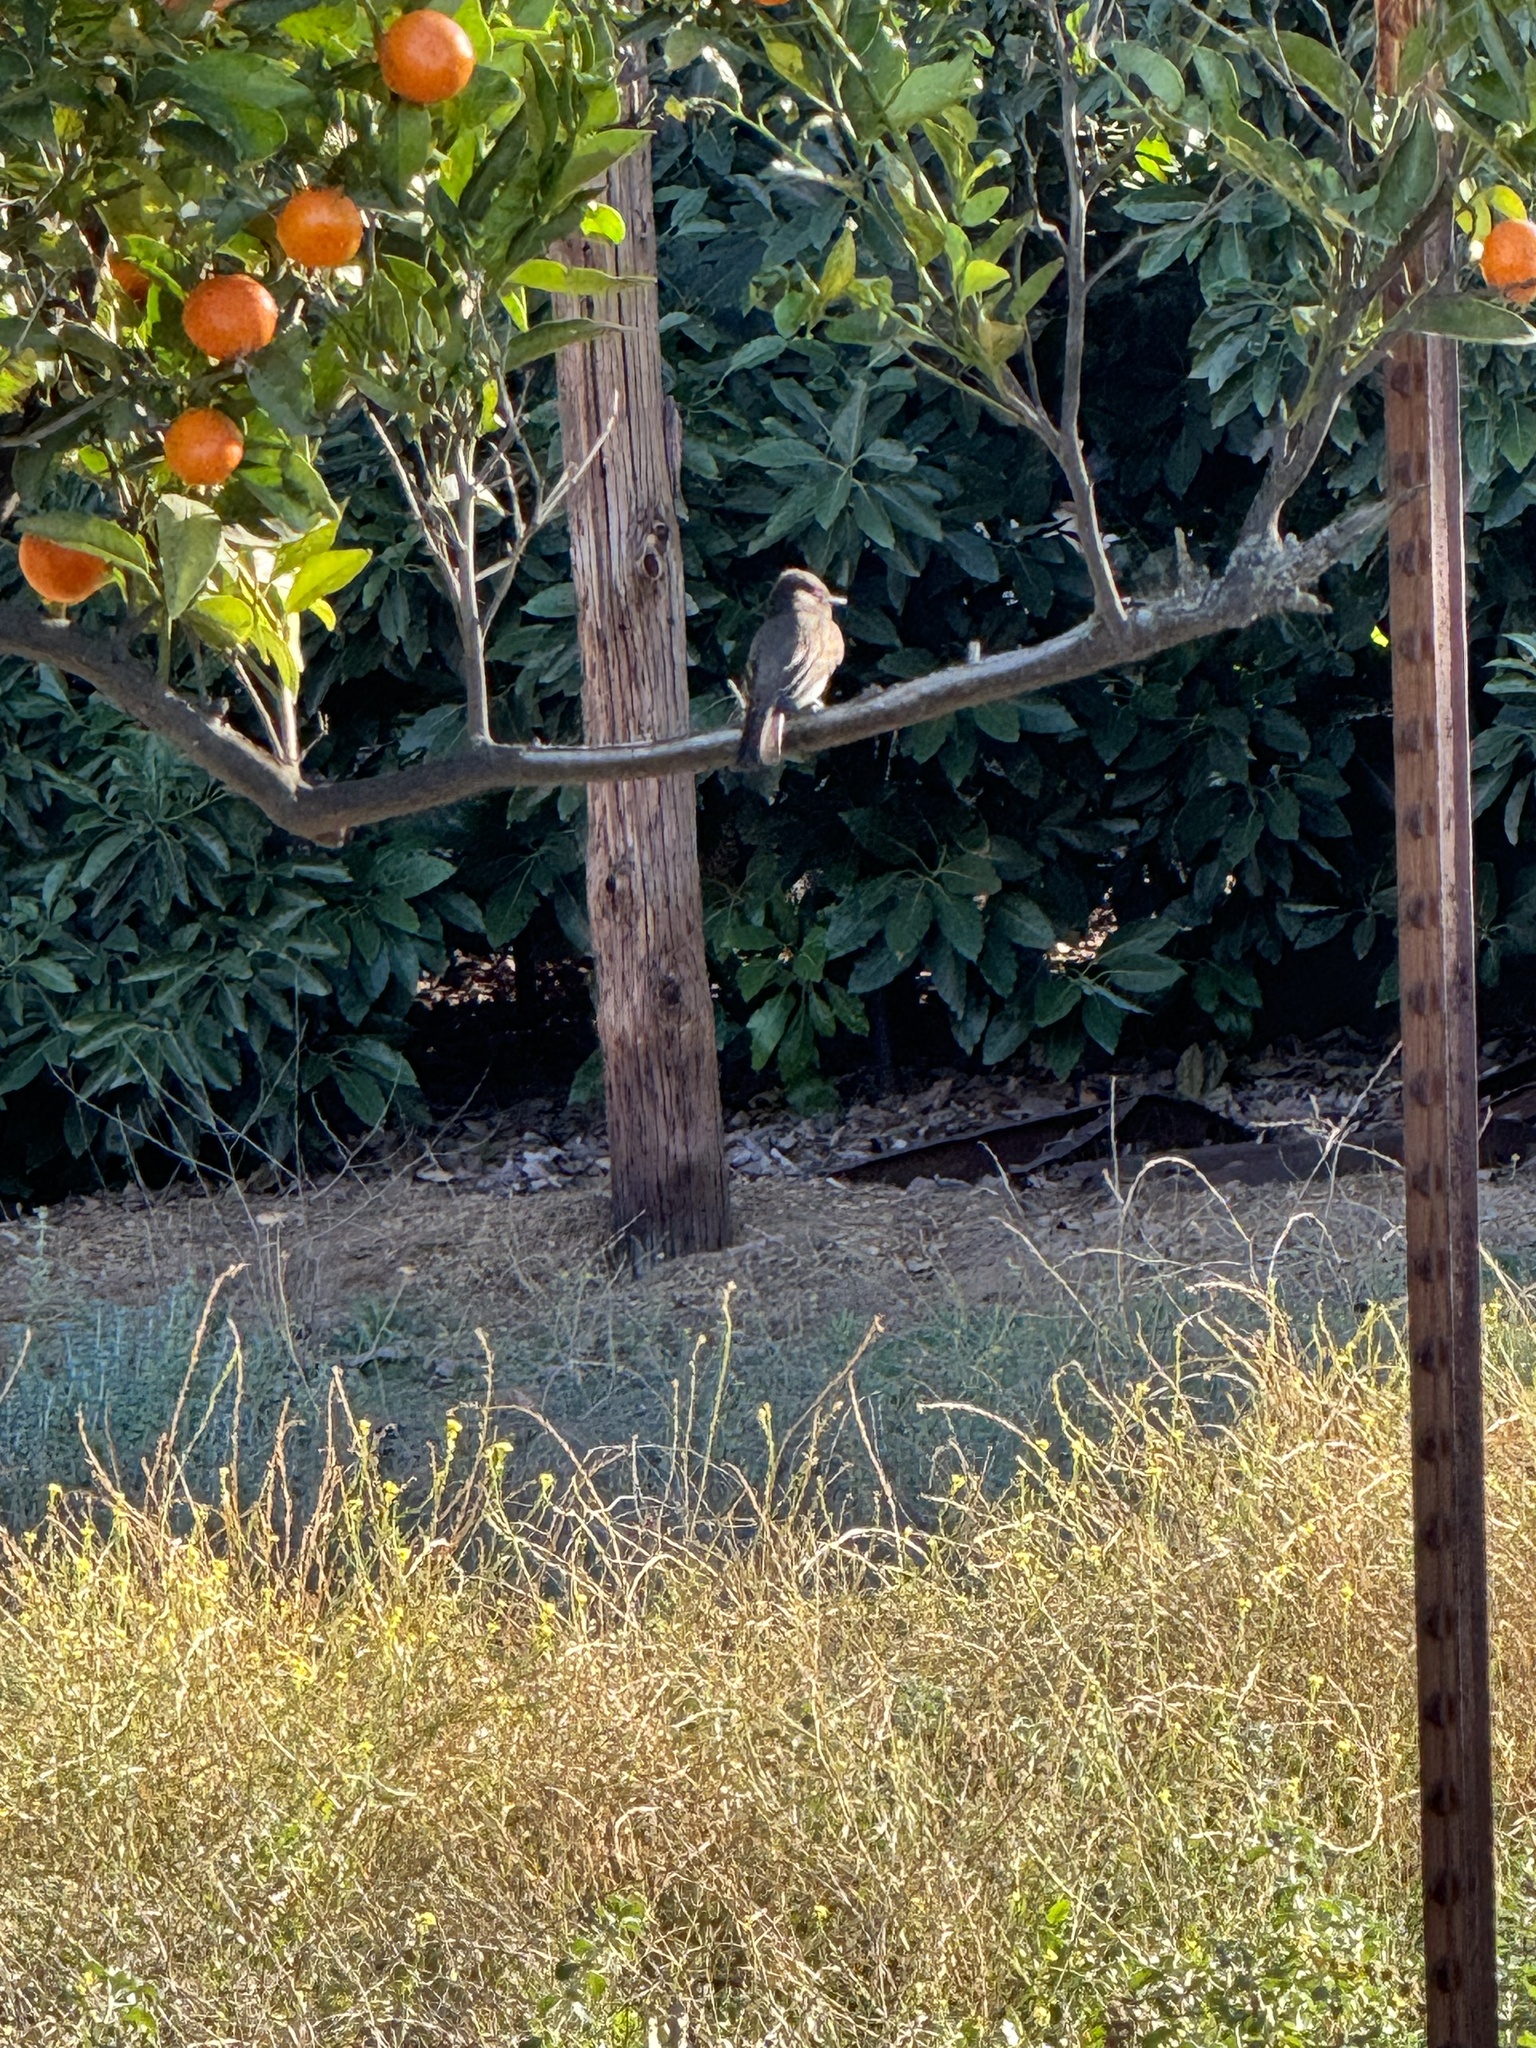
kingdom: Animalia
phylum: Chordata
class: Aves
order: Passeriformes
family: Tyrannidae
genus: Sayornis
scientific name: Sayornis nigricans
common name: Black phoebe
